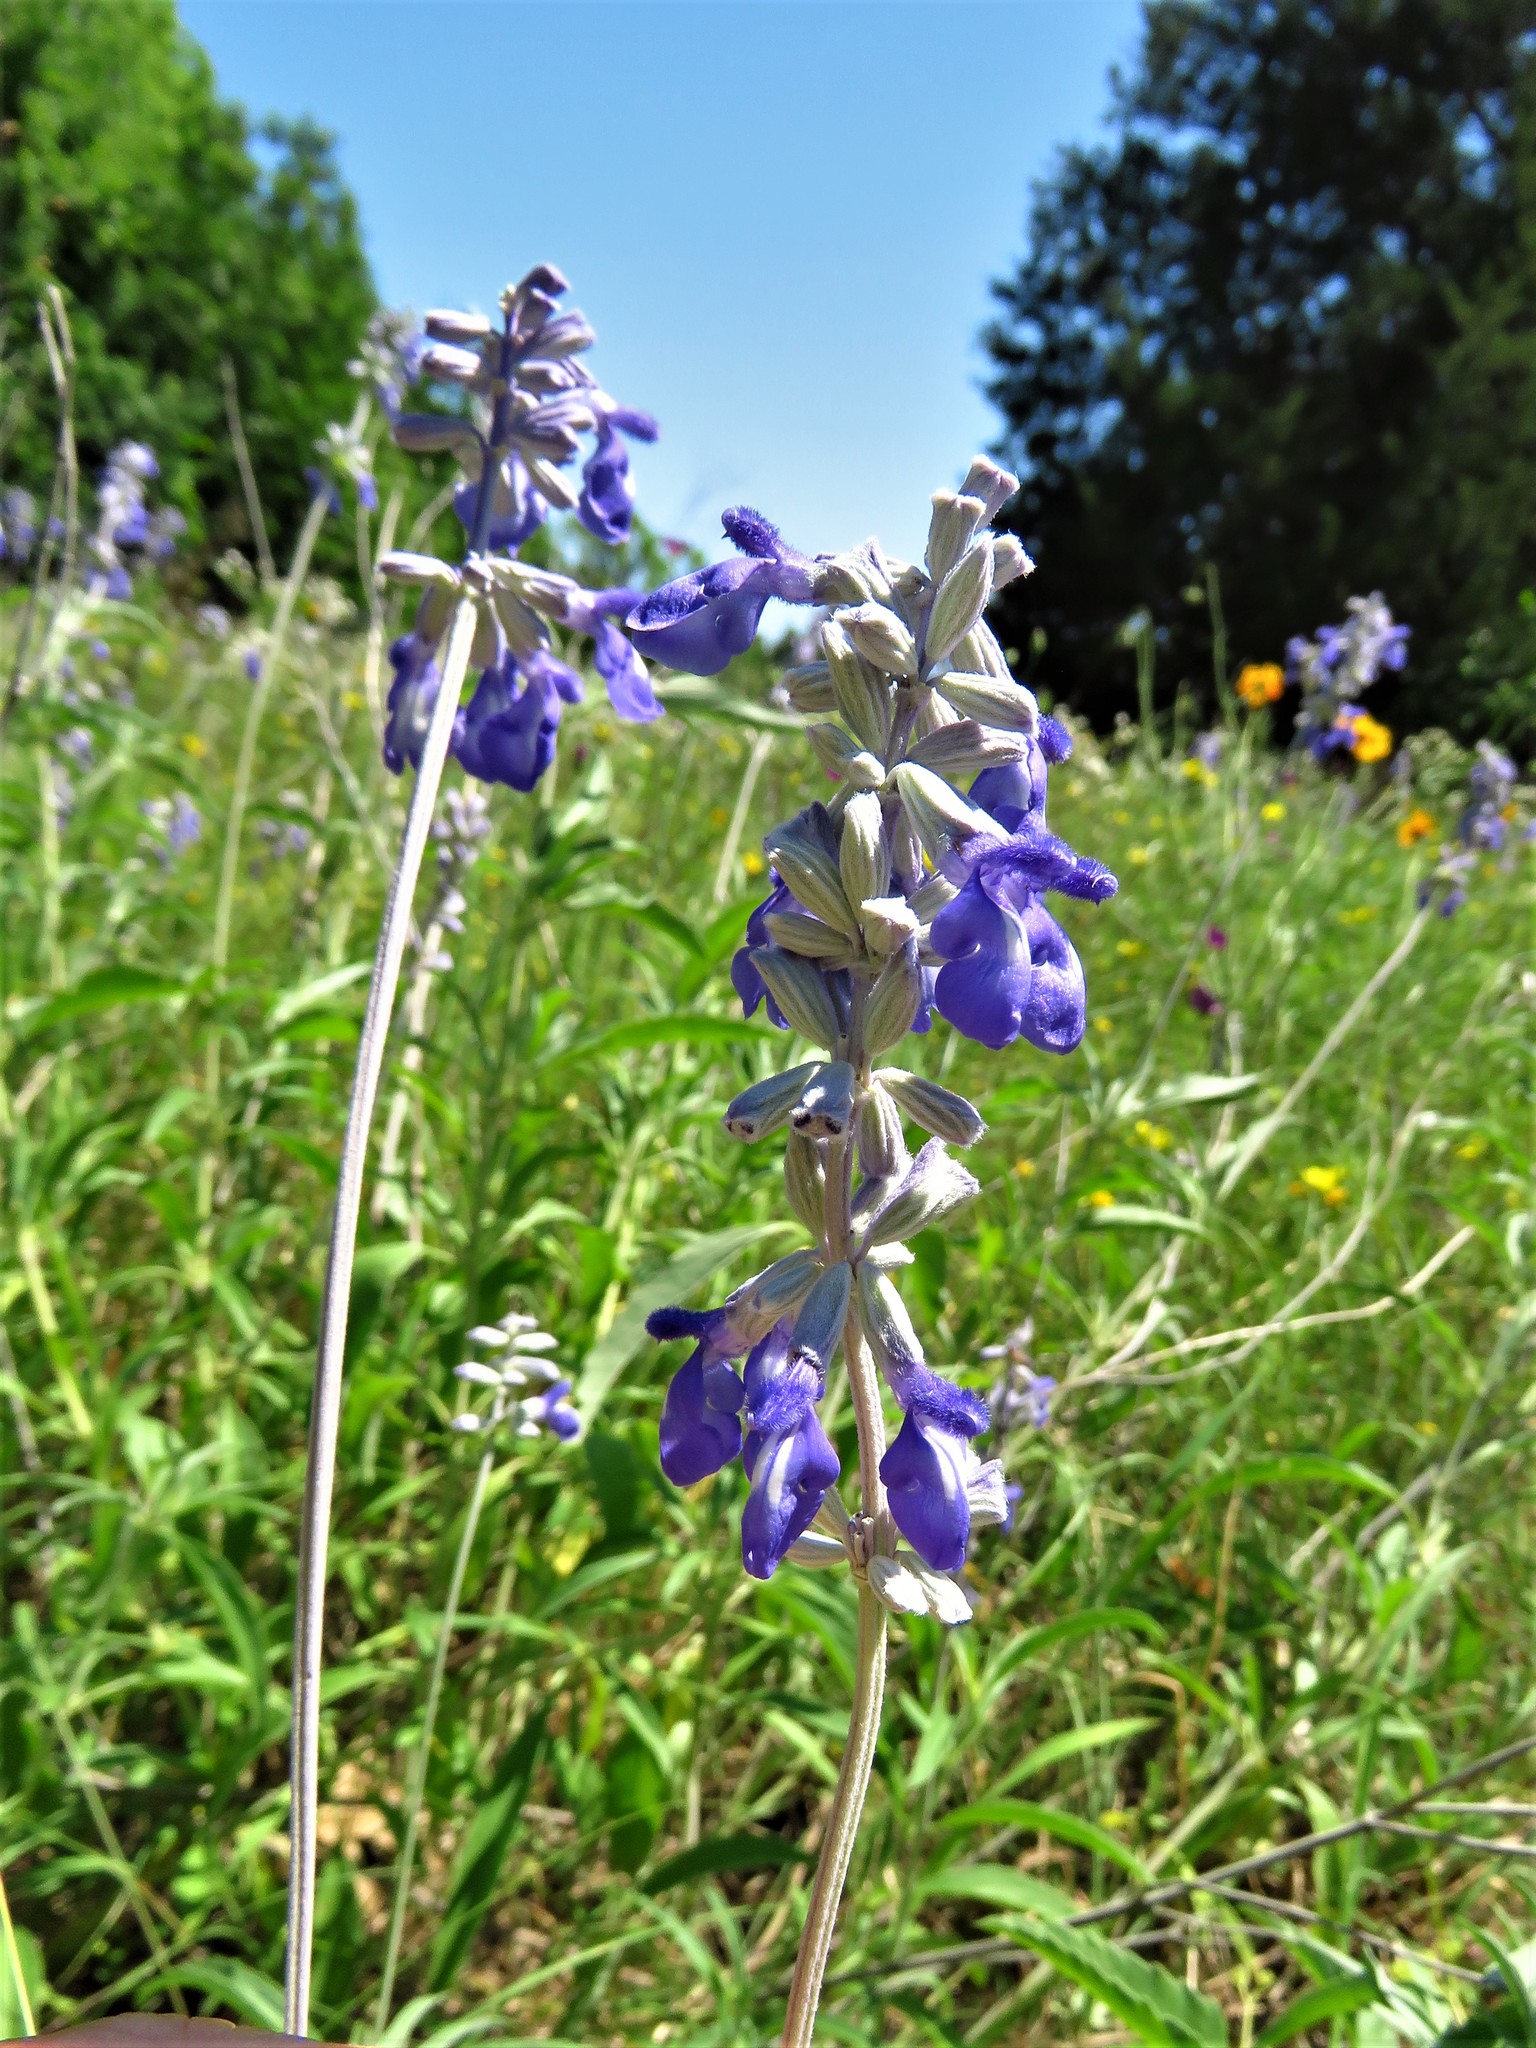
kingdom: Plantae
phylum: Tracheophyta
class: Magnoliopsida
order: Lamiales
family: Lamiaceae
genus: Salvia
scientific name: Salvia farinacea
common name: Mealy sage
